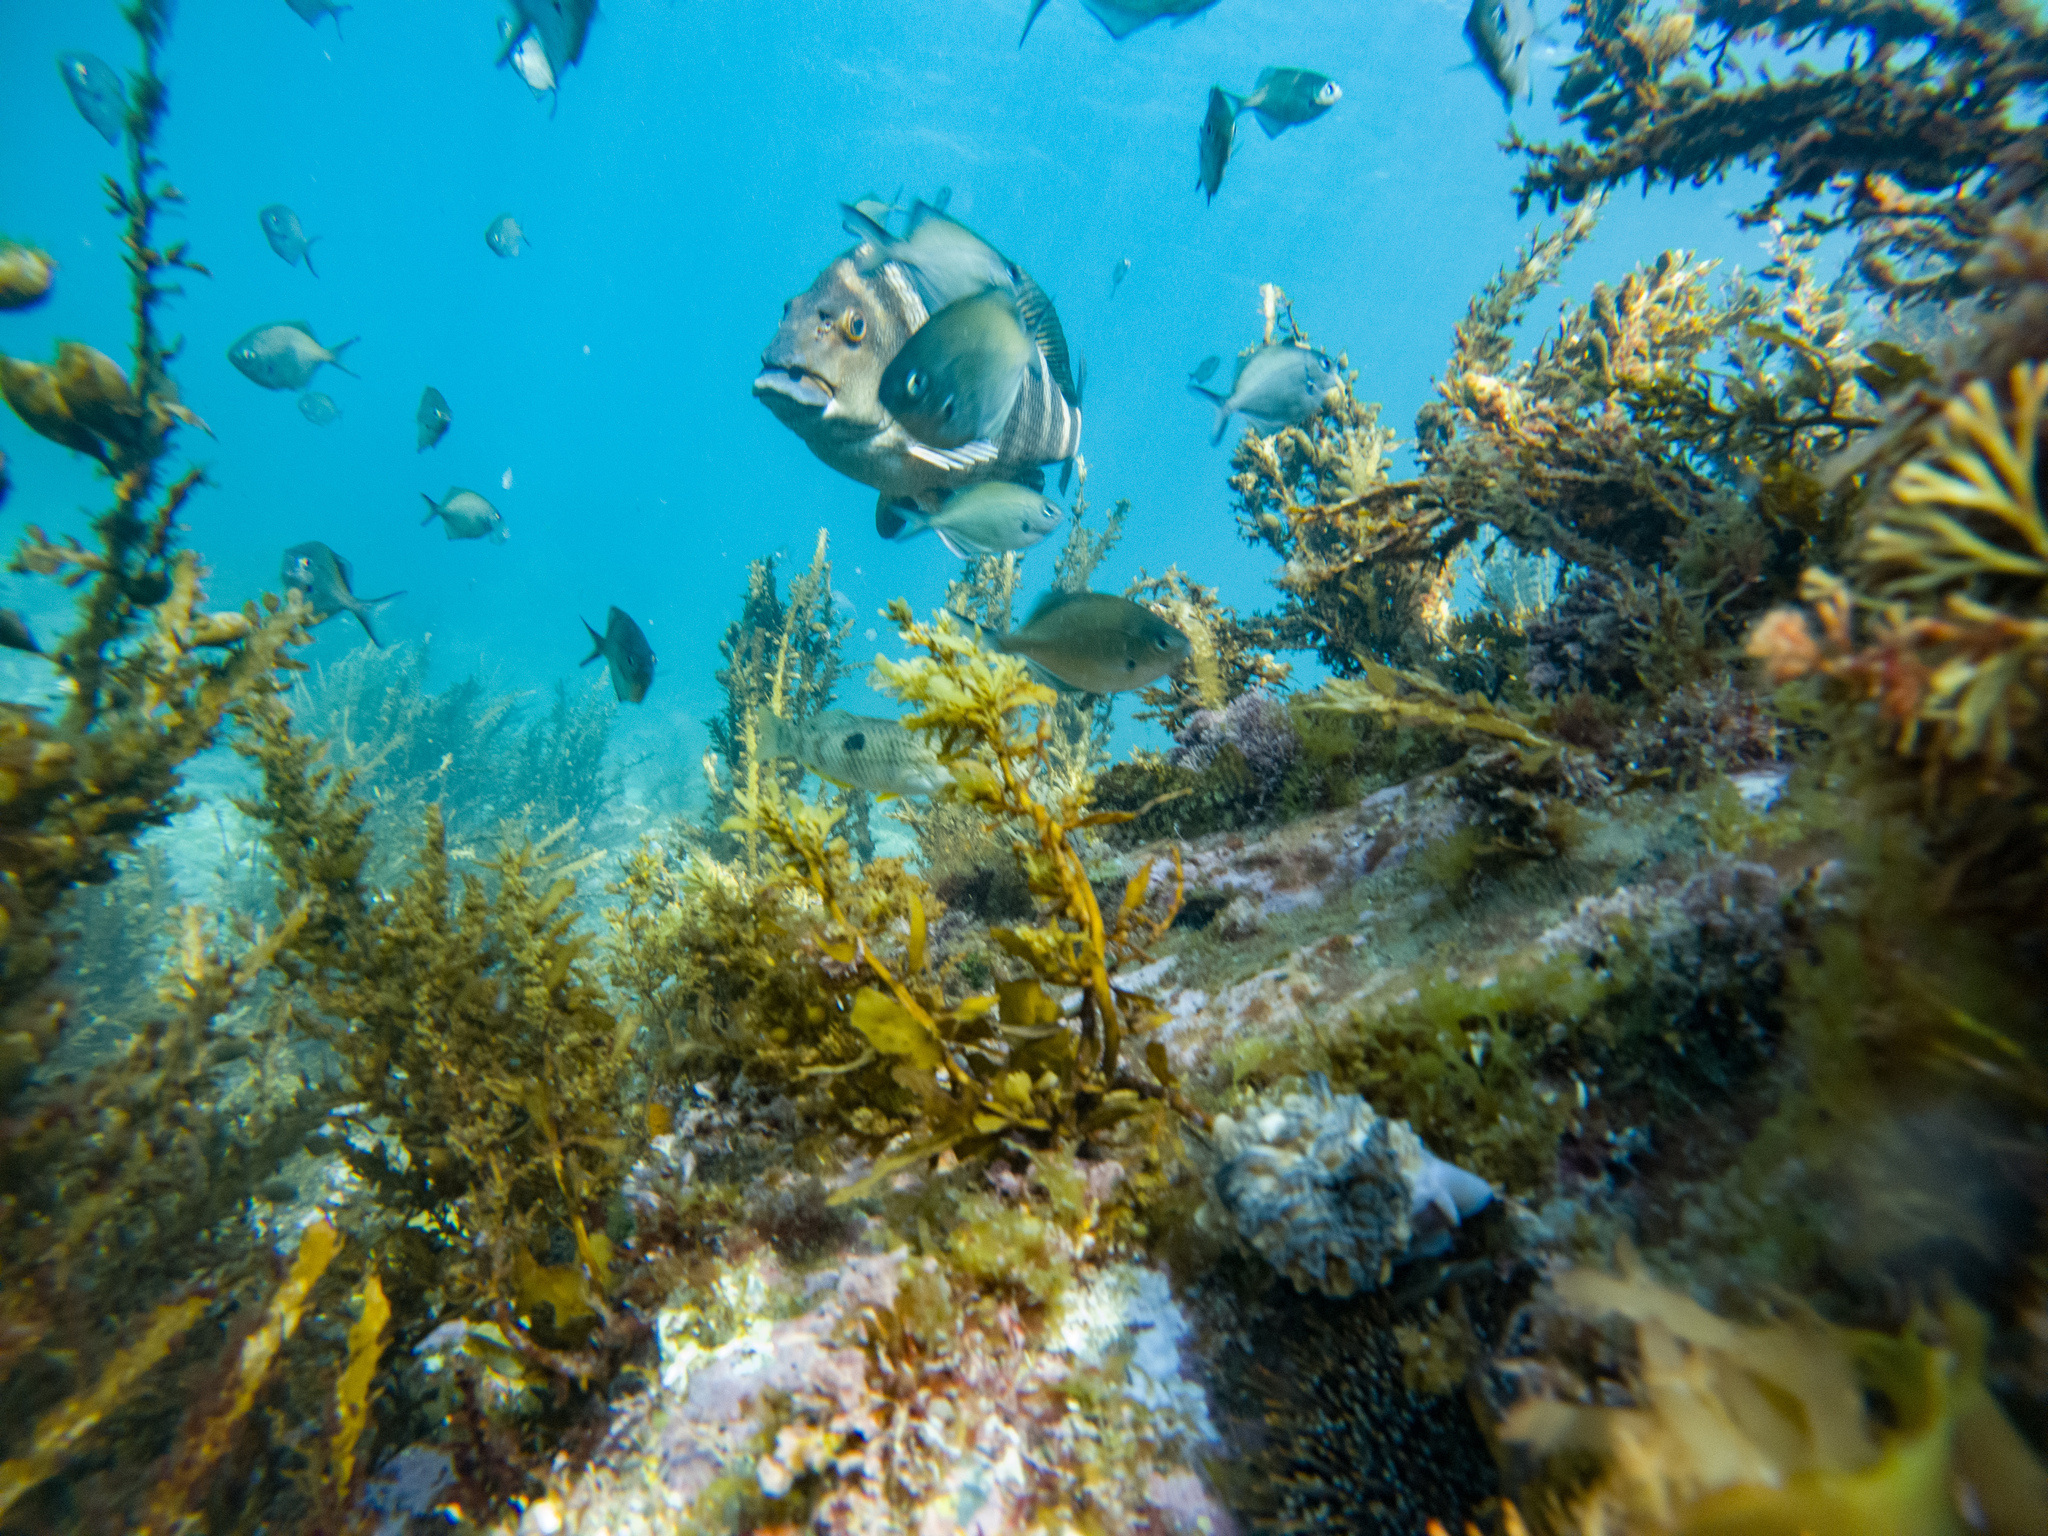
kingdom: Animalia
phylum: Chordata
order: Perciformes
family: Cheilodactylidae
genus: Cheilodactylus
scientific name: Cheilodactylus spectabilis
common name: Red moki
